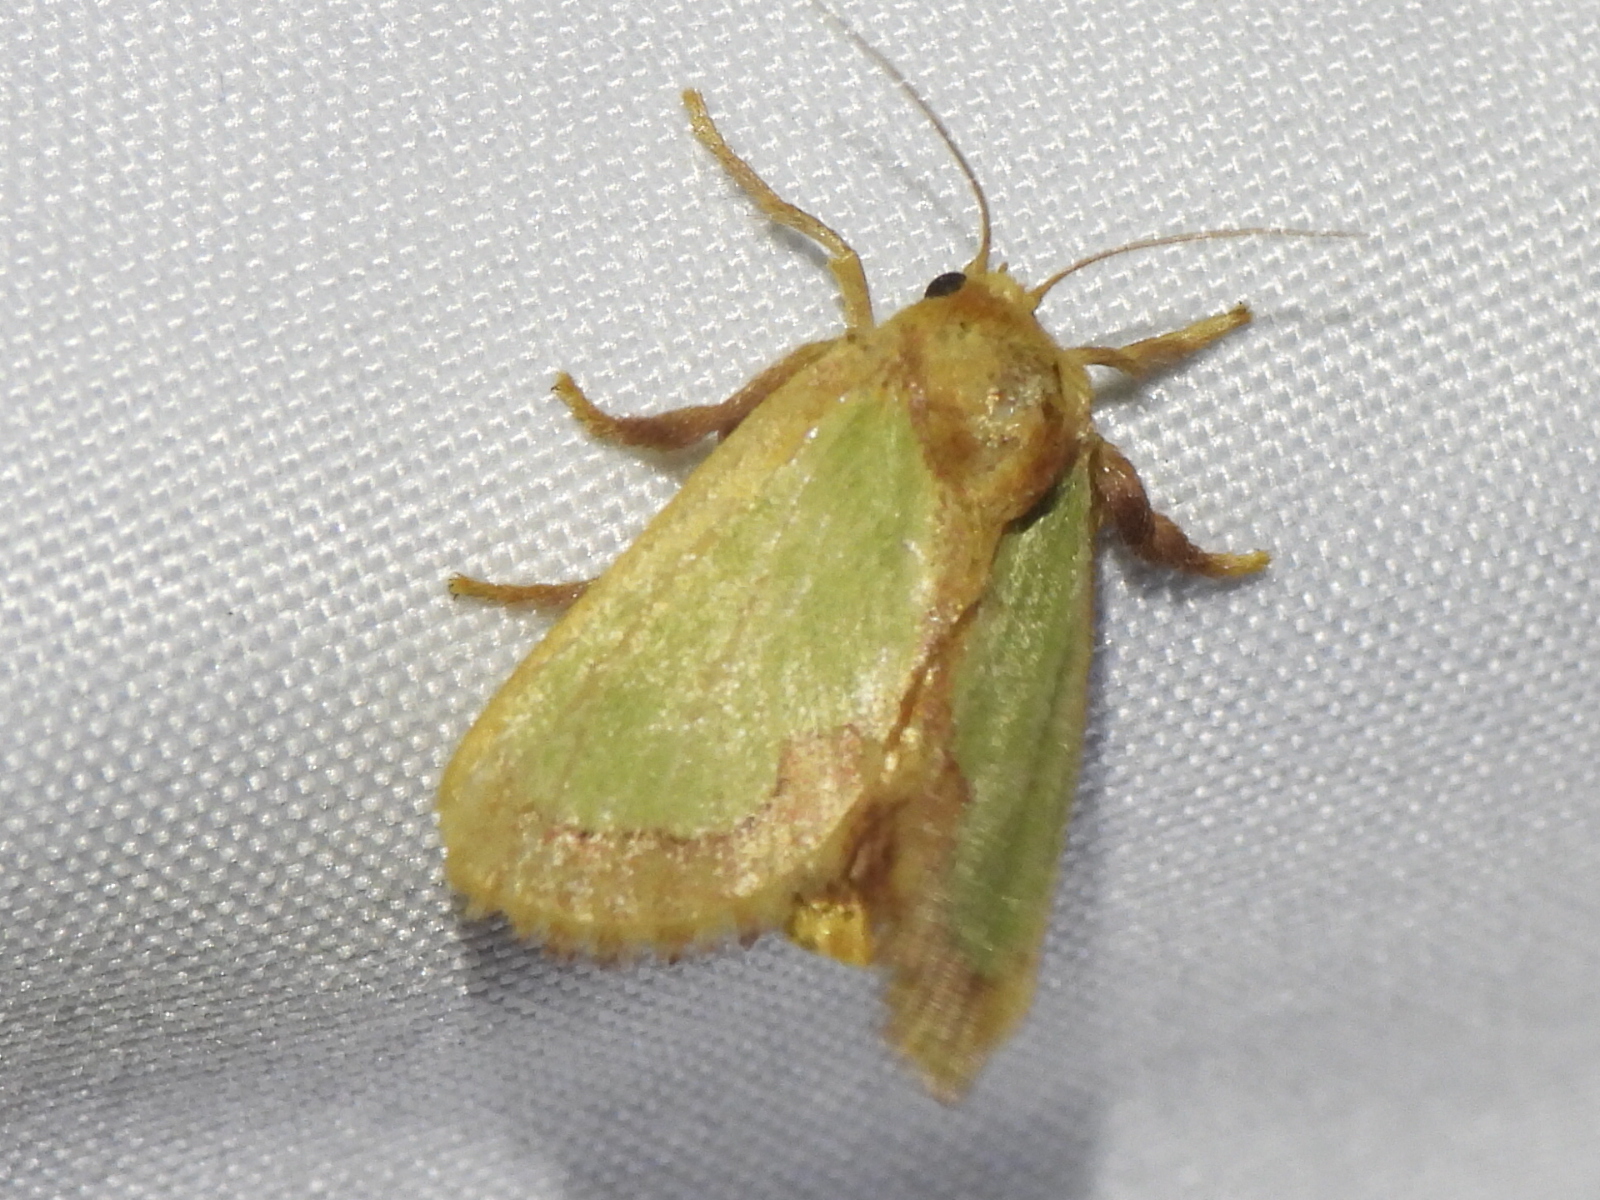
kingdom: Animalia
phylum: Arthropoda
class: Insecta
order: Lepidoptera
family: Limacodidae
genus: Euclea
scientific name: Euclea incisa
